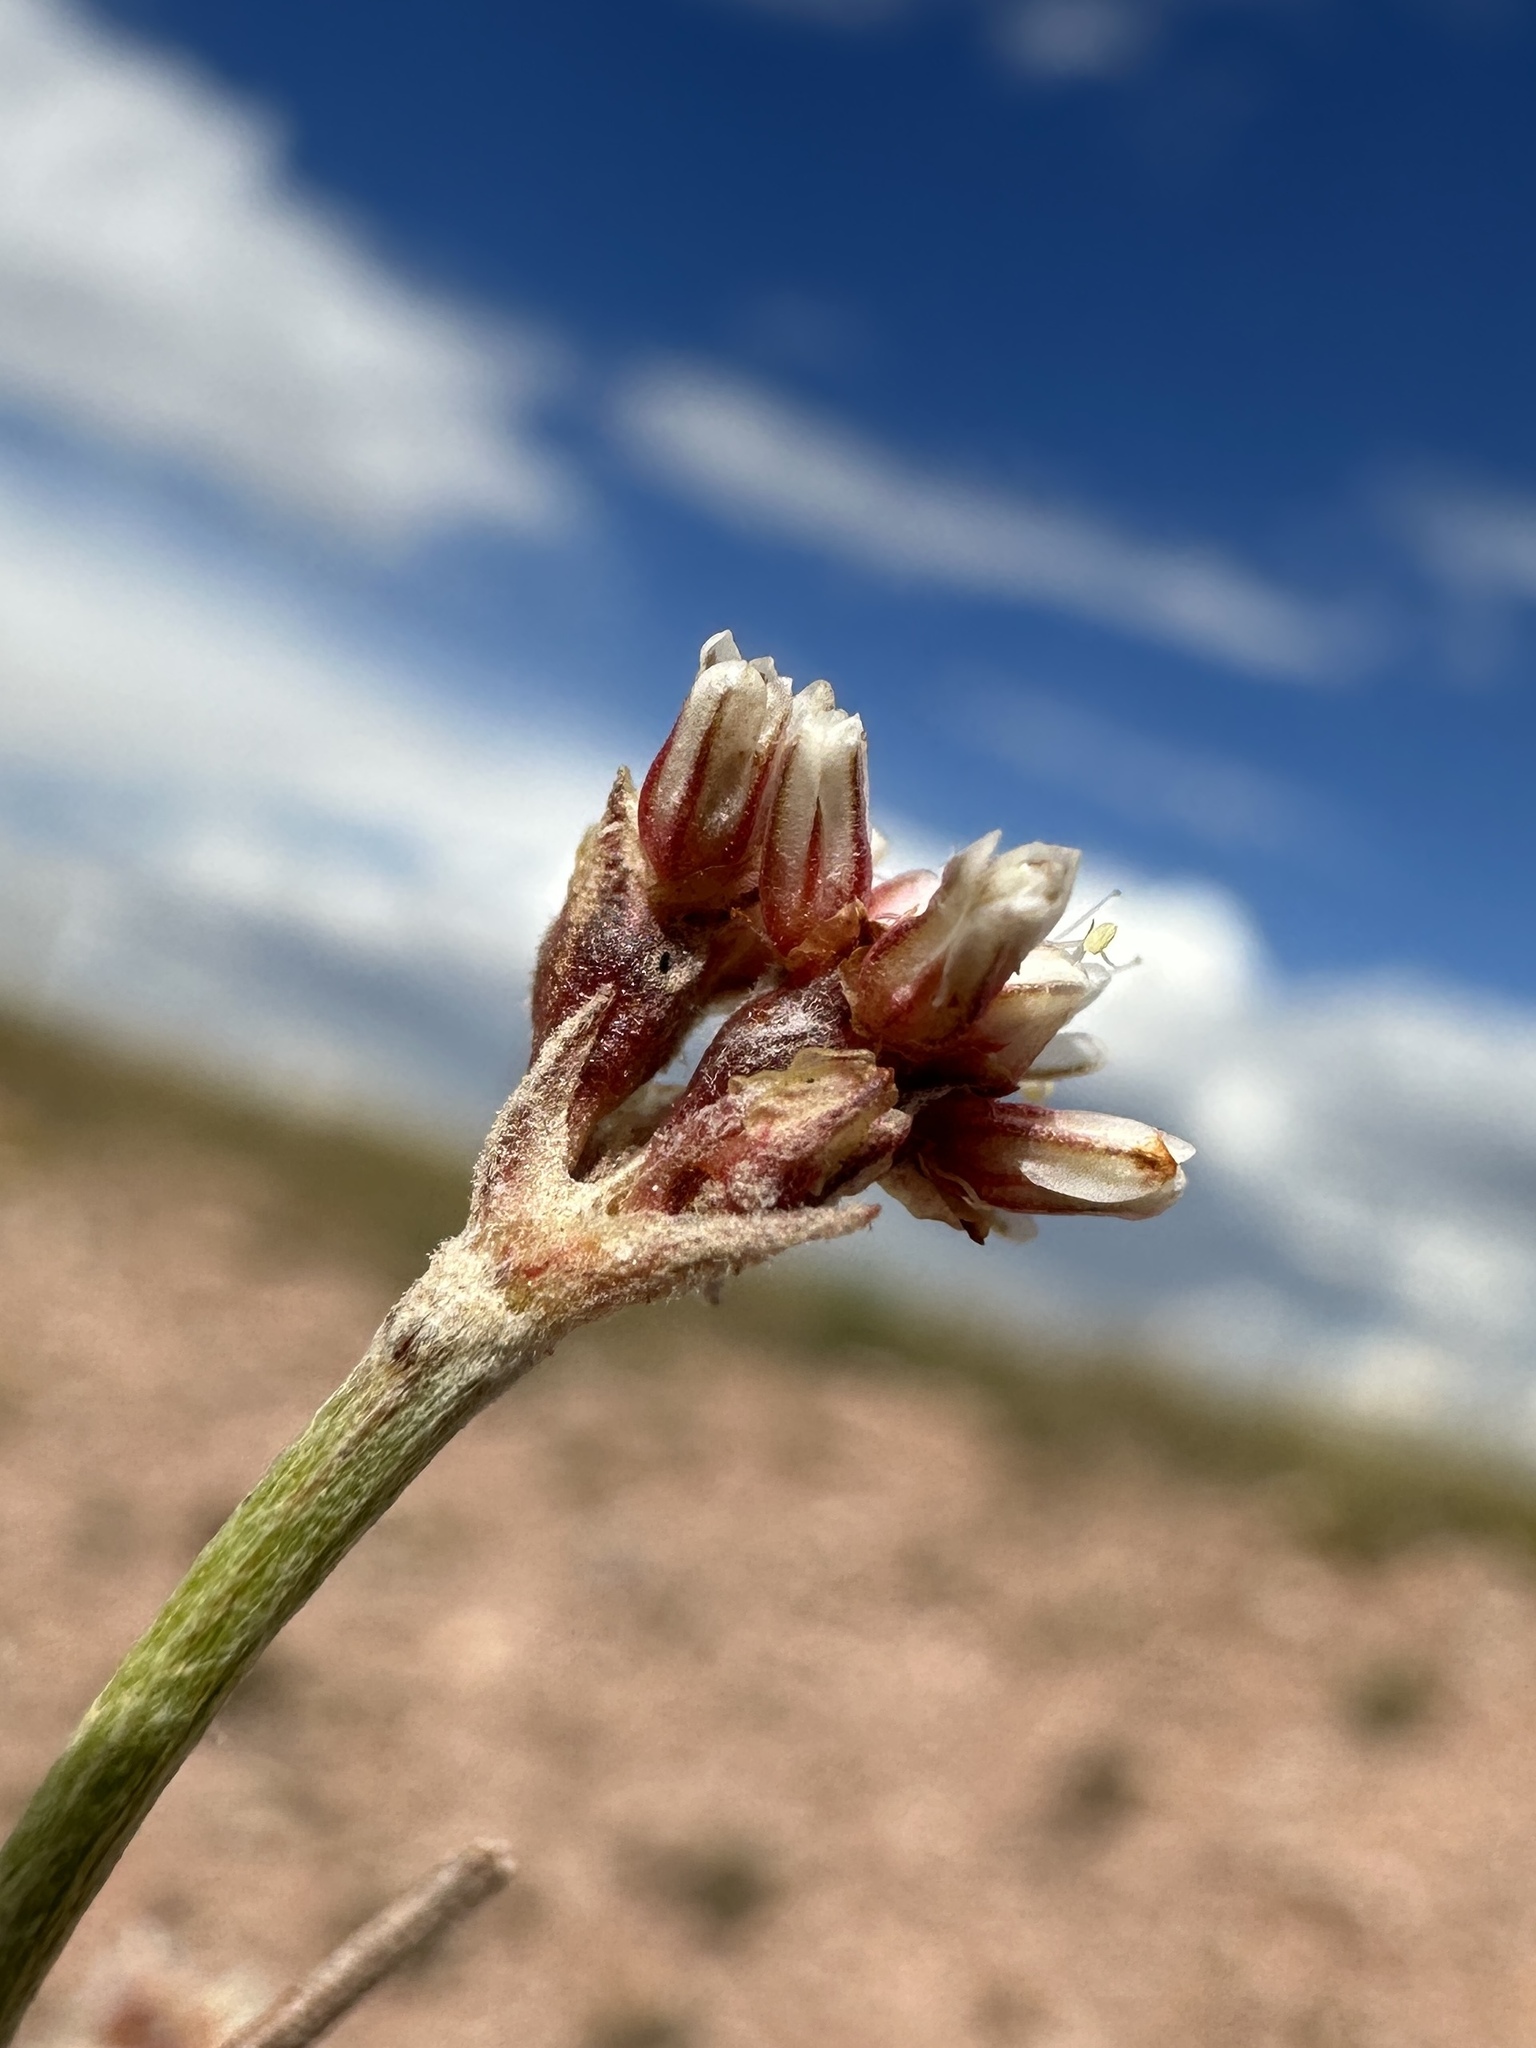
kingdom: Plantae
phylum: Tracheophyta
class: Magnoliopsida
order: Caryophyllales
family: Polygonaceae
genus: Eriogonum
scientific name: Eriogonum exilifolium
